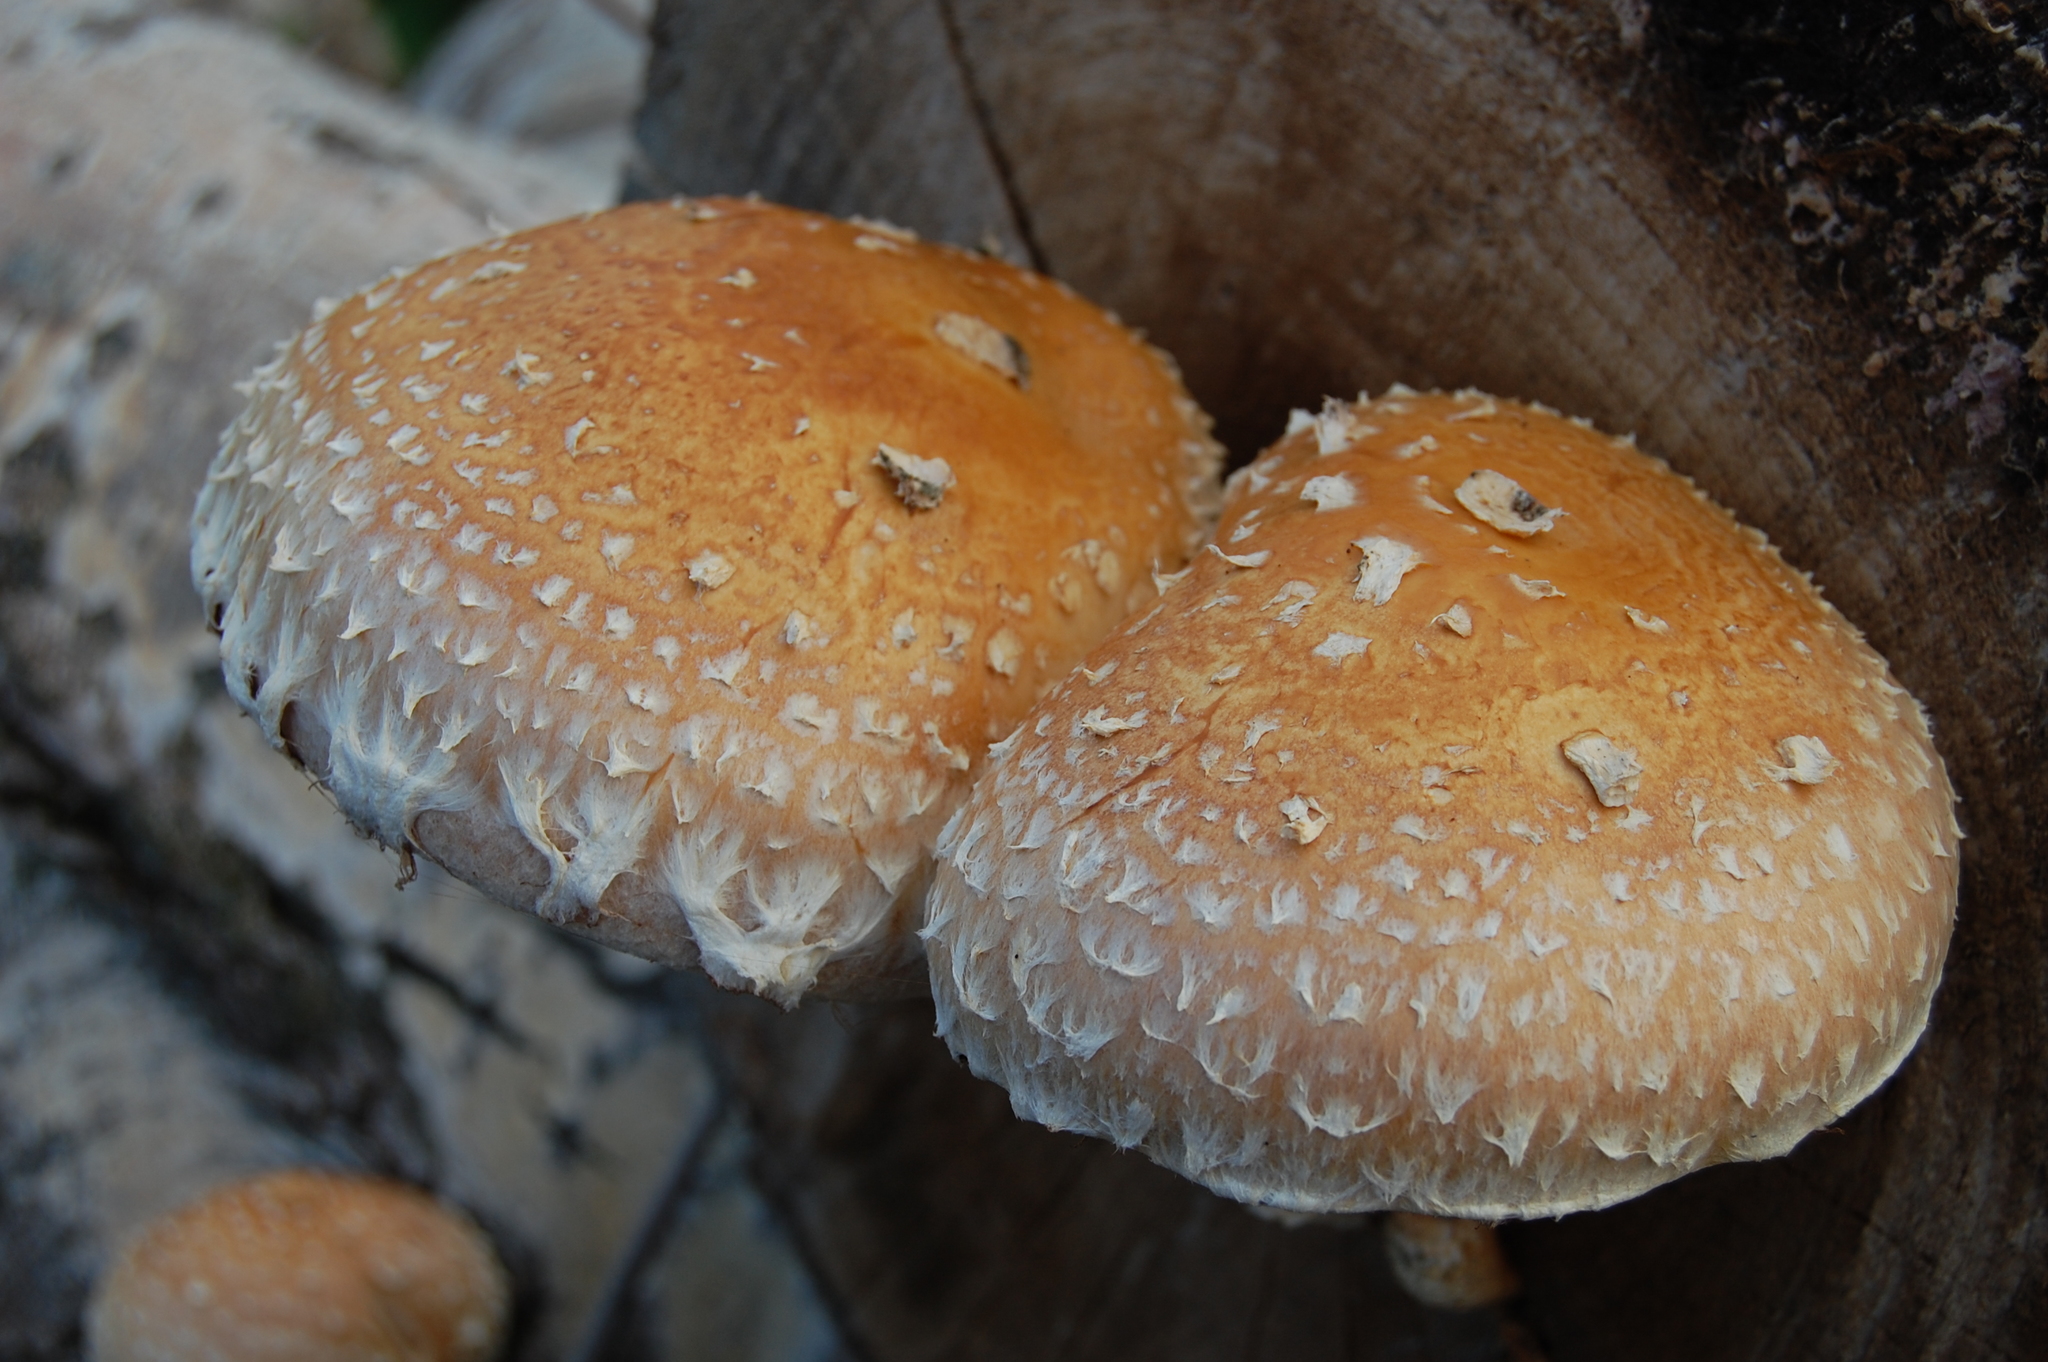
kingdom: Fungi
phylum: Basidiomycota
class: Agaricomycetes
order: Agaricales
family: Strophariaceae
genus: Pholiota
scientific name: Pholiota populnea
